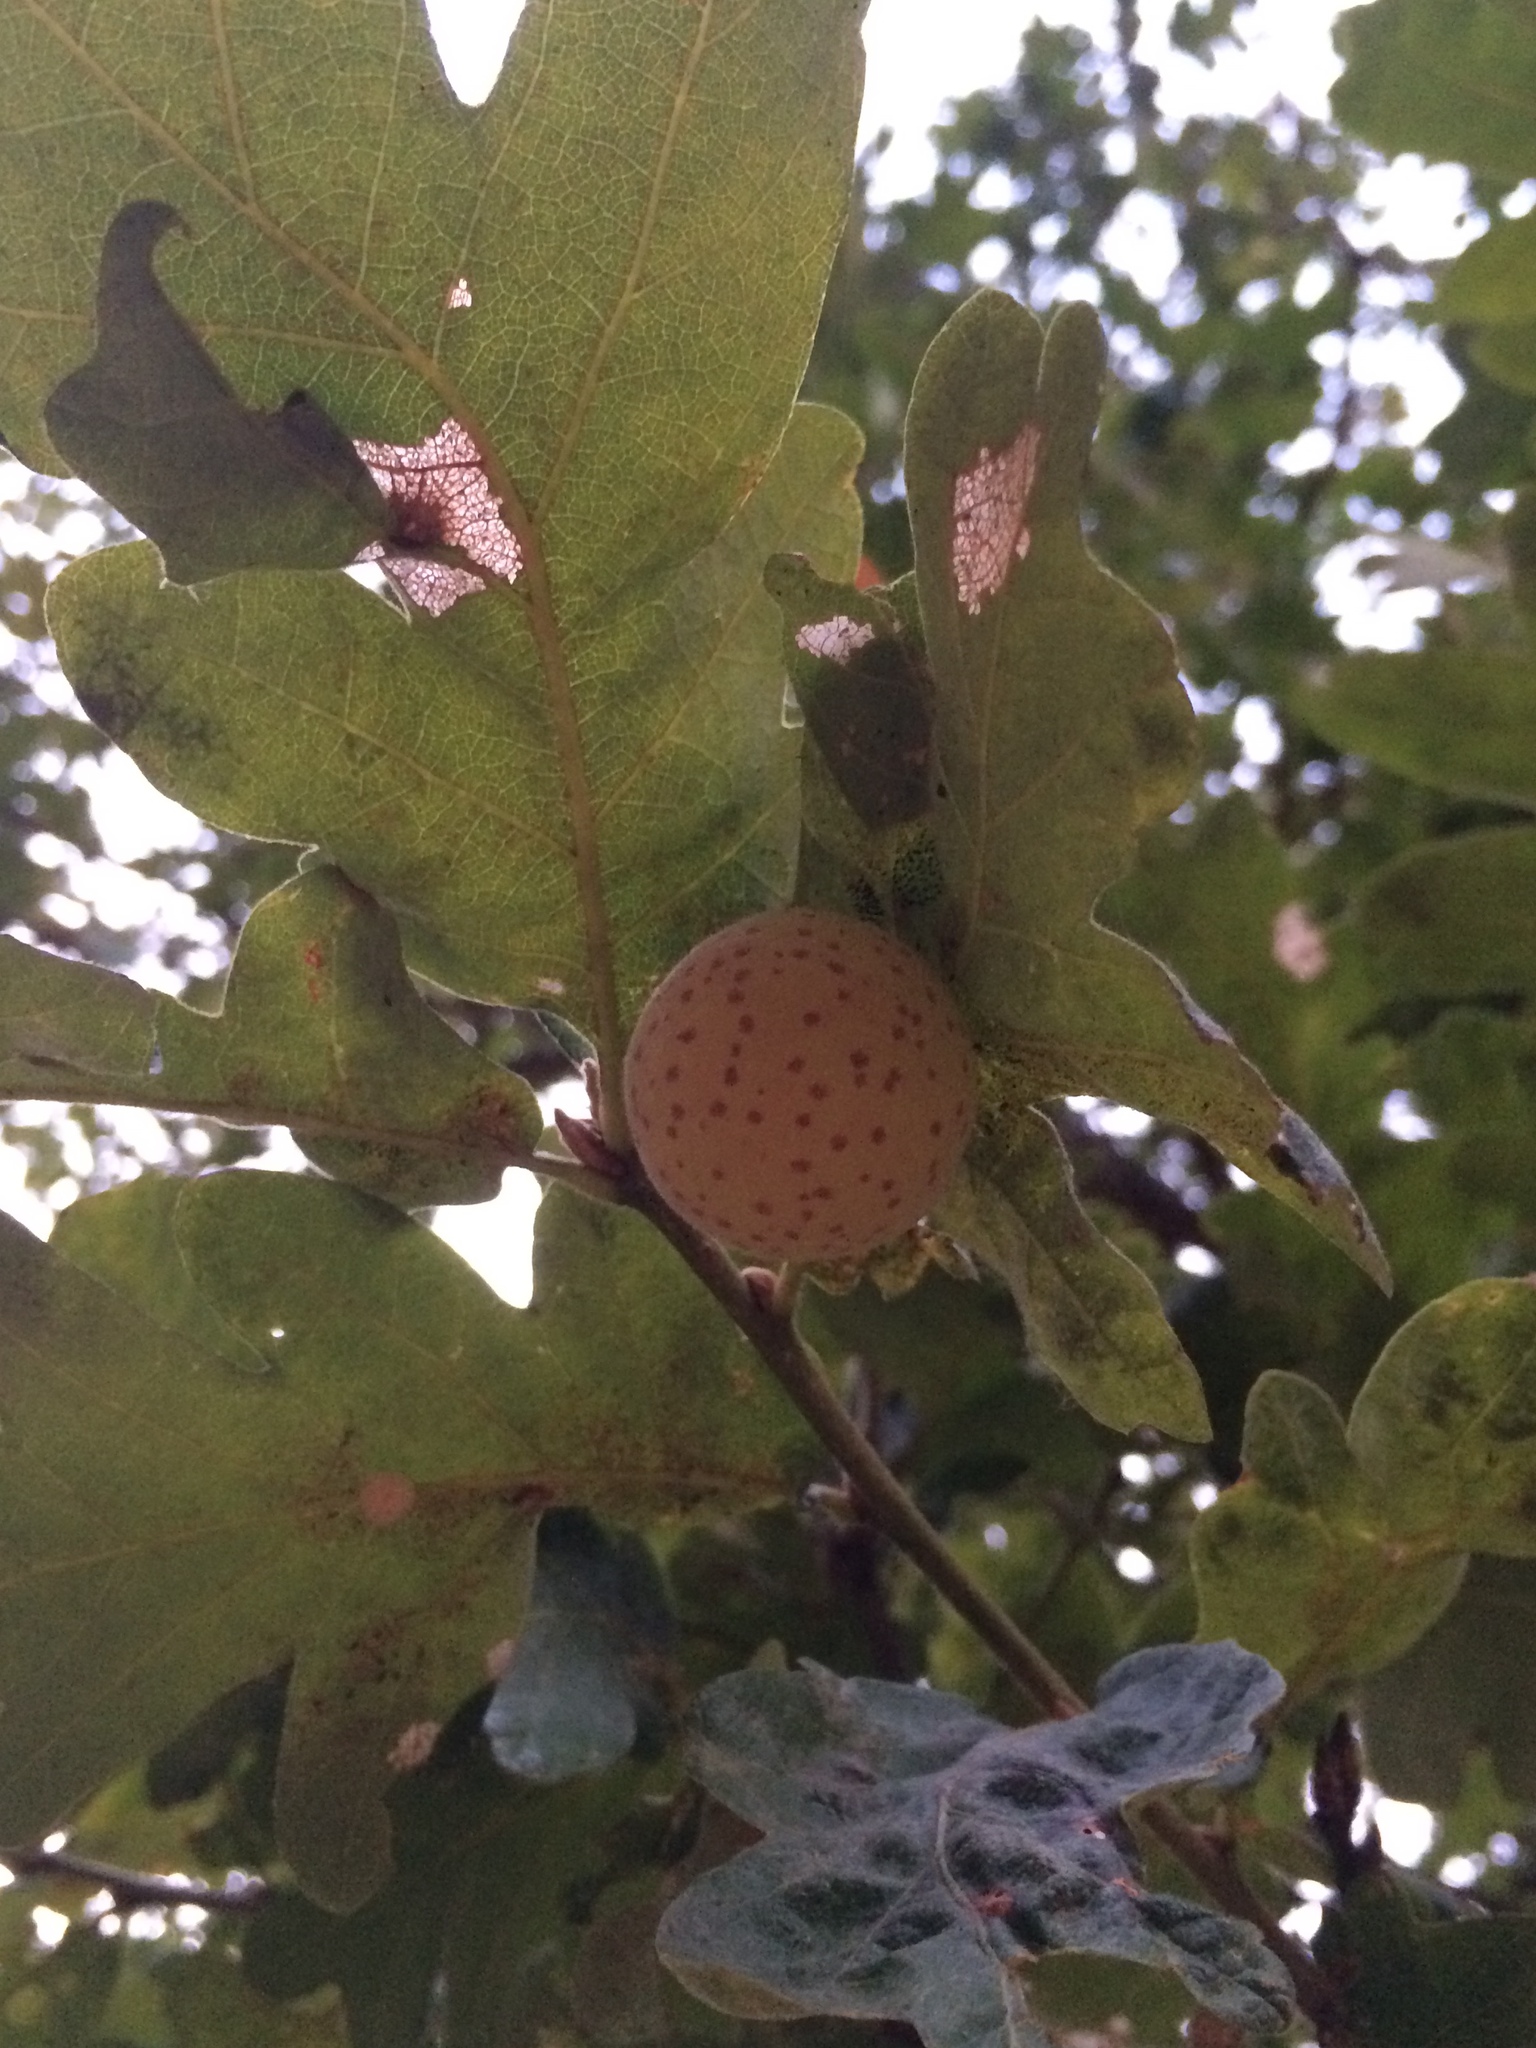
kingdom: Animalia
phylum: Arthropoda
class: Insecta
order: Hymenoptera
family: Cynipidae
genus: Cynips
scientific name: Cynips
